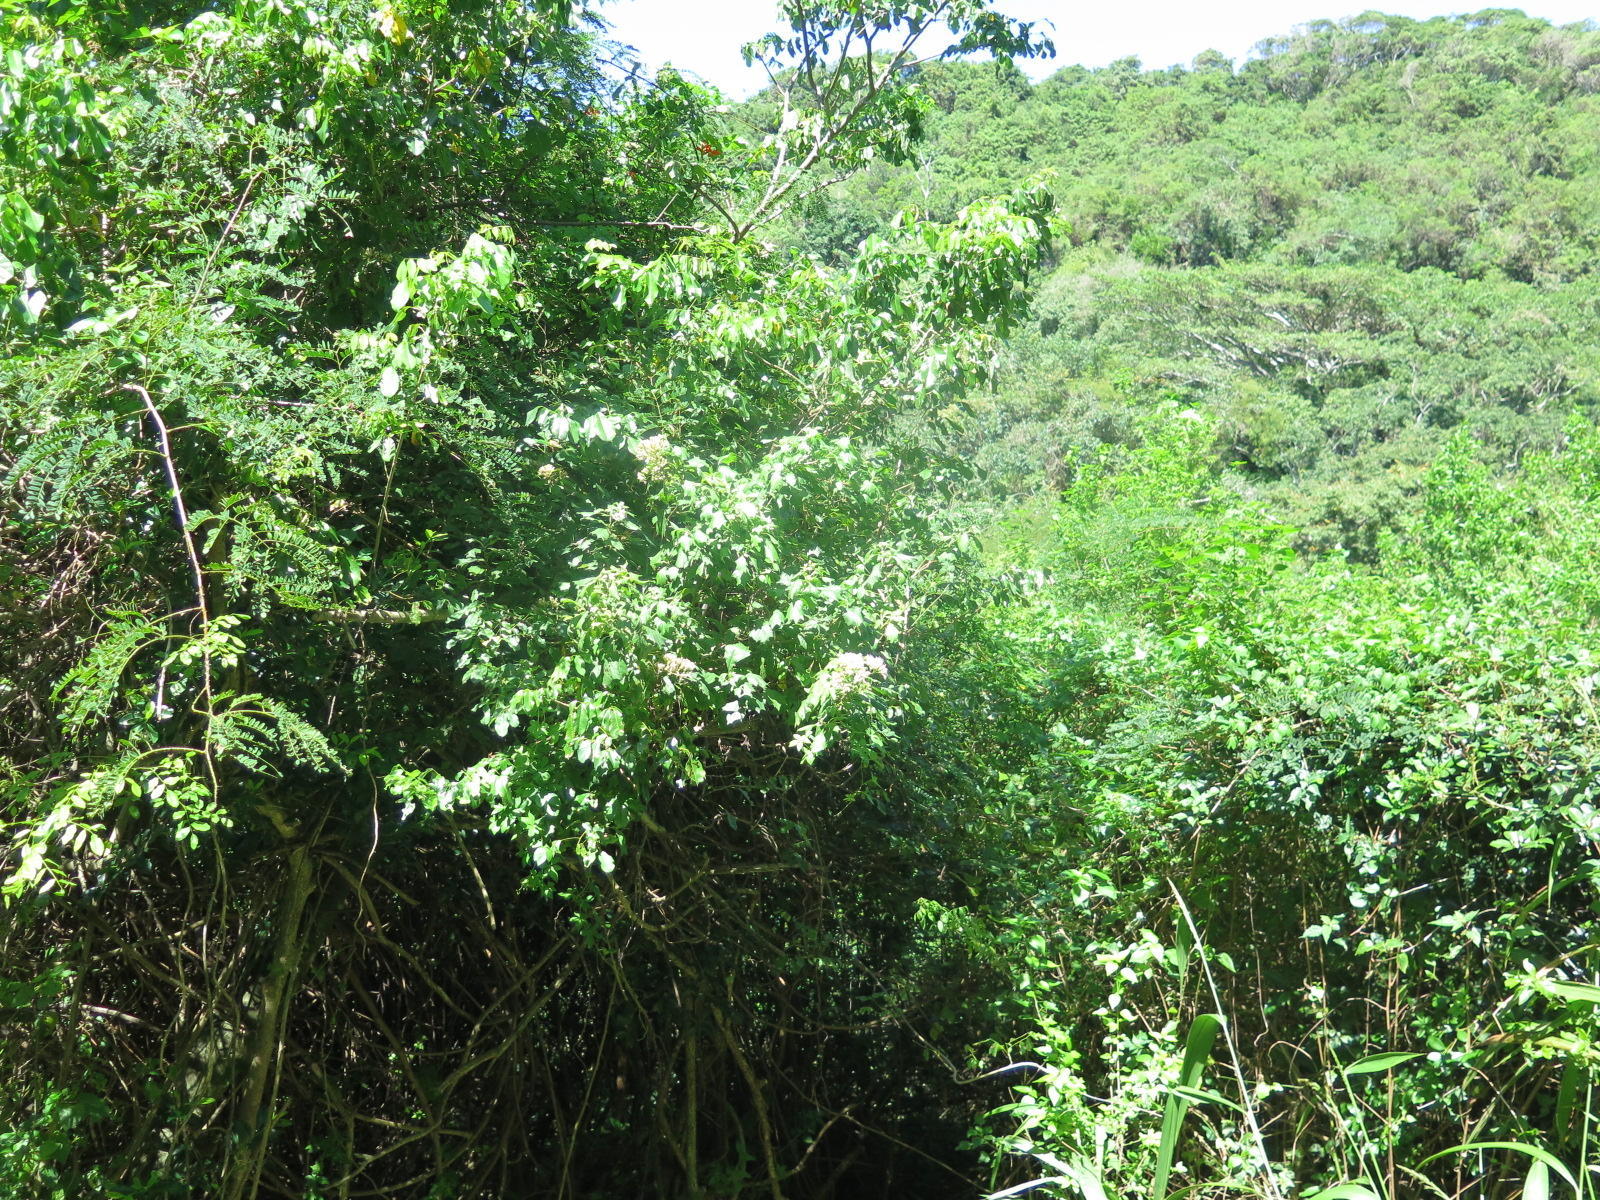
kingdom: Plantae
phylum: Tracheophyta
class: Magnoliopsida
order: Asterales
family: Asteraceae
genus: Gymnanthemum
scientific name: Gymnanthemum capense
